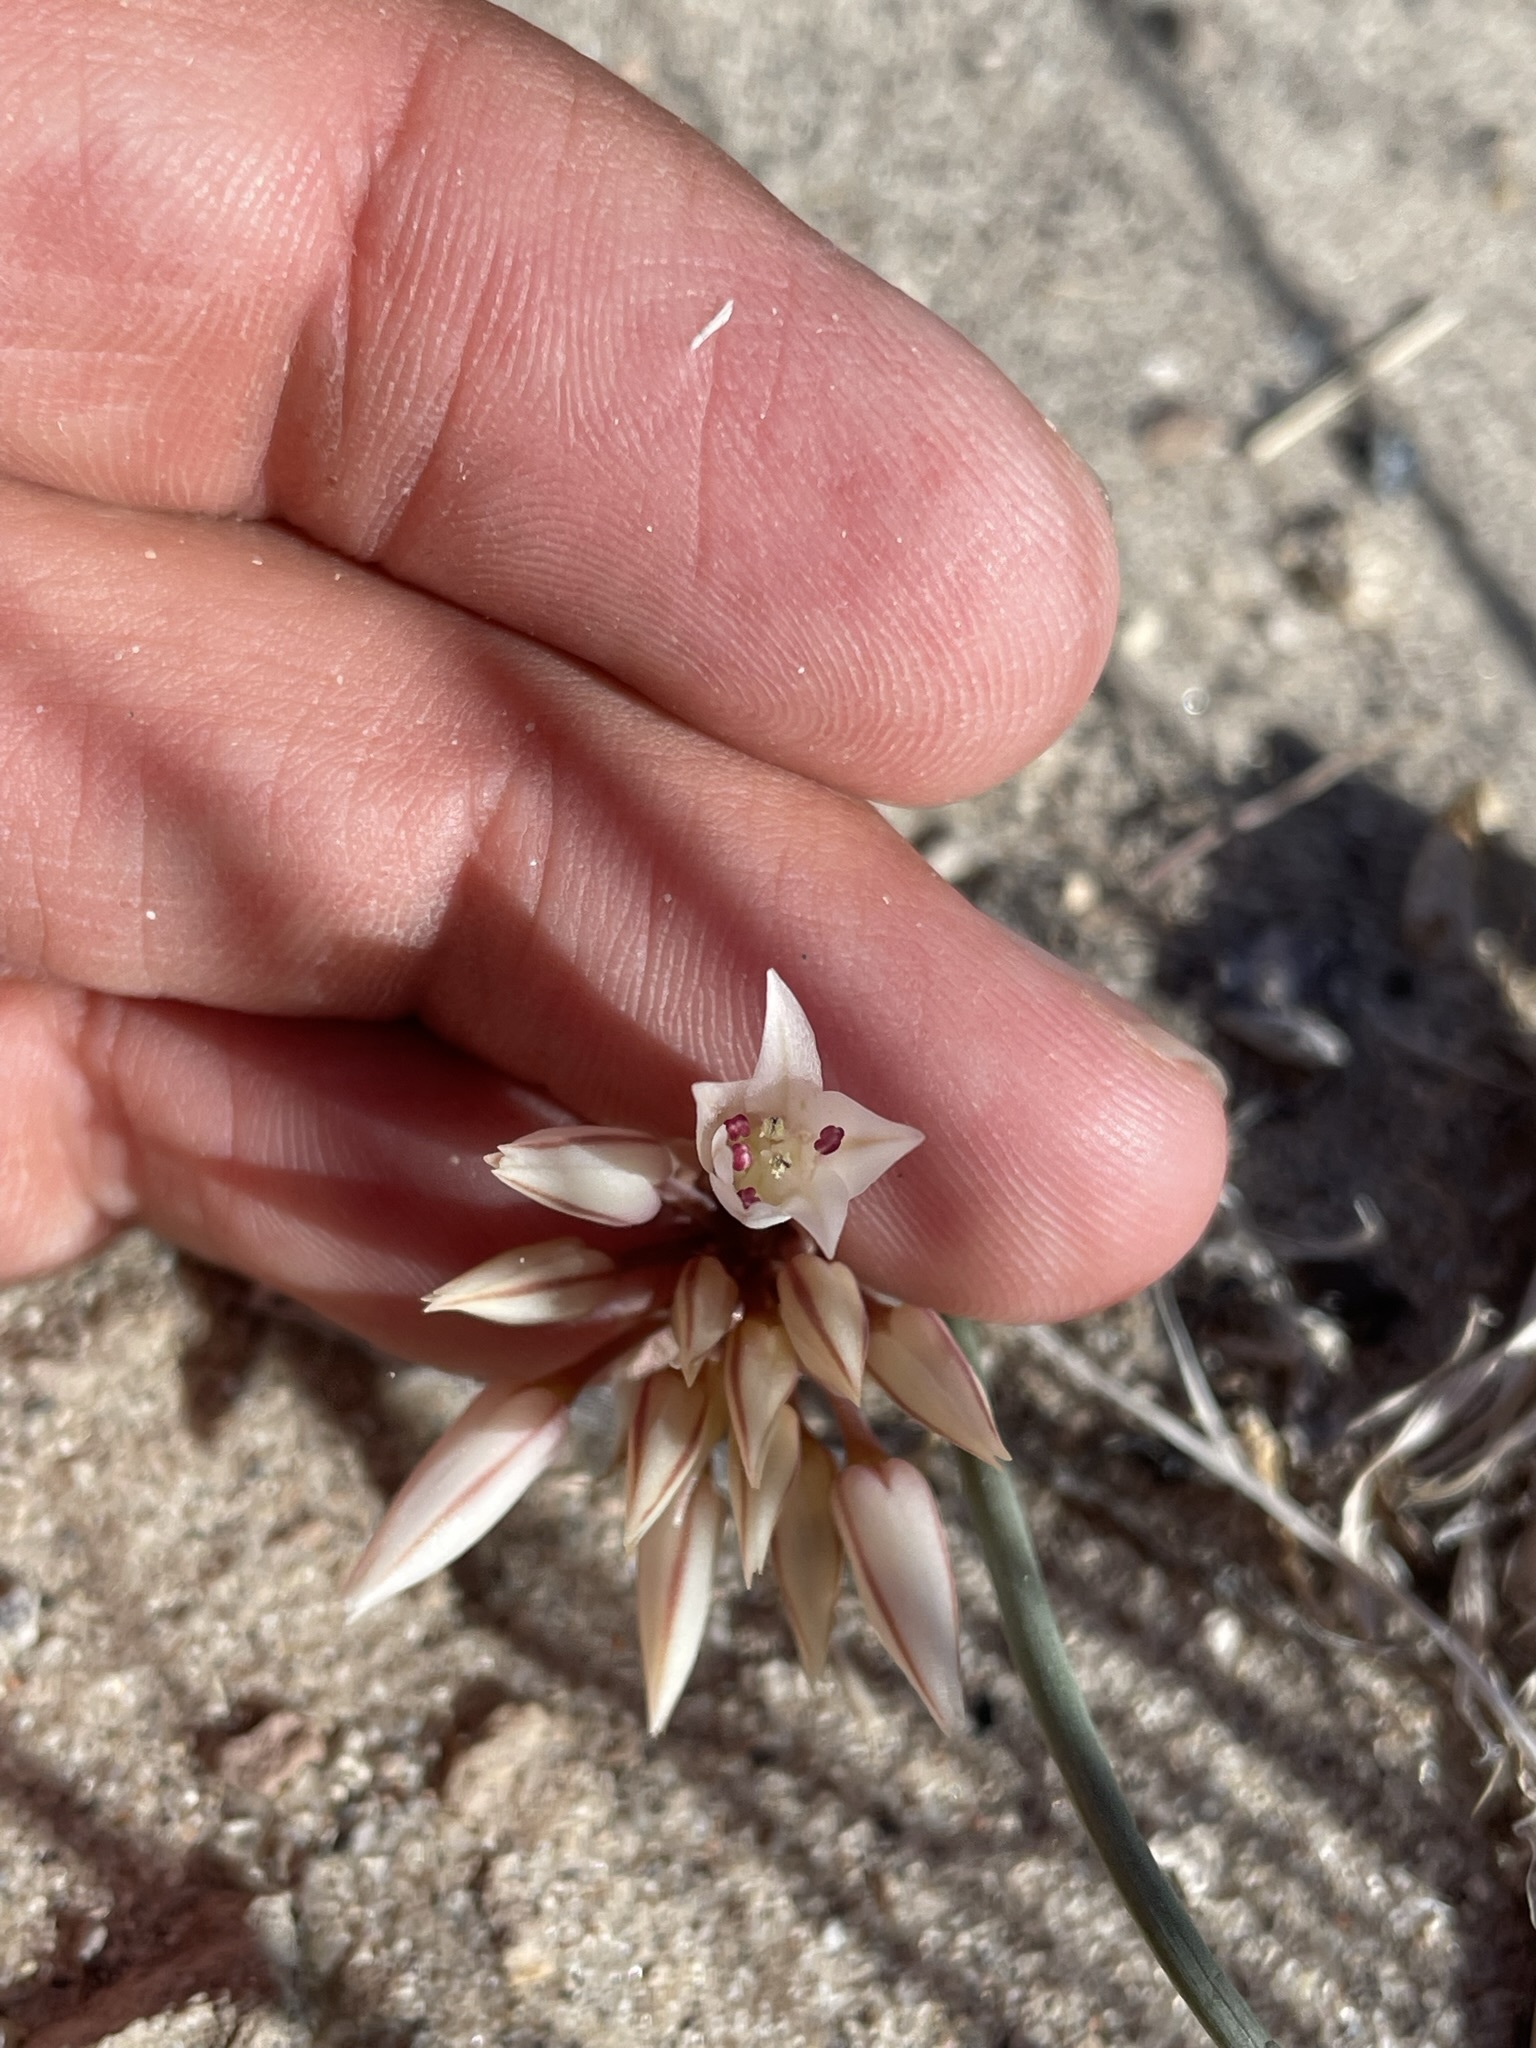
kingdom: Plantae
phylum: Tracheophyta
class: Liliopsida
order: Asparagales
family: Amaryllidaceae
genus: Allium
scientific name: Allium atrorubens
